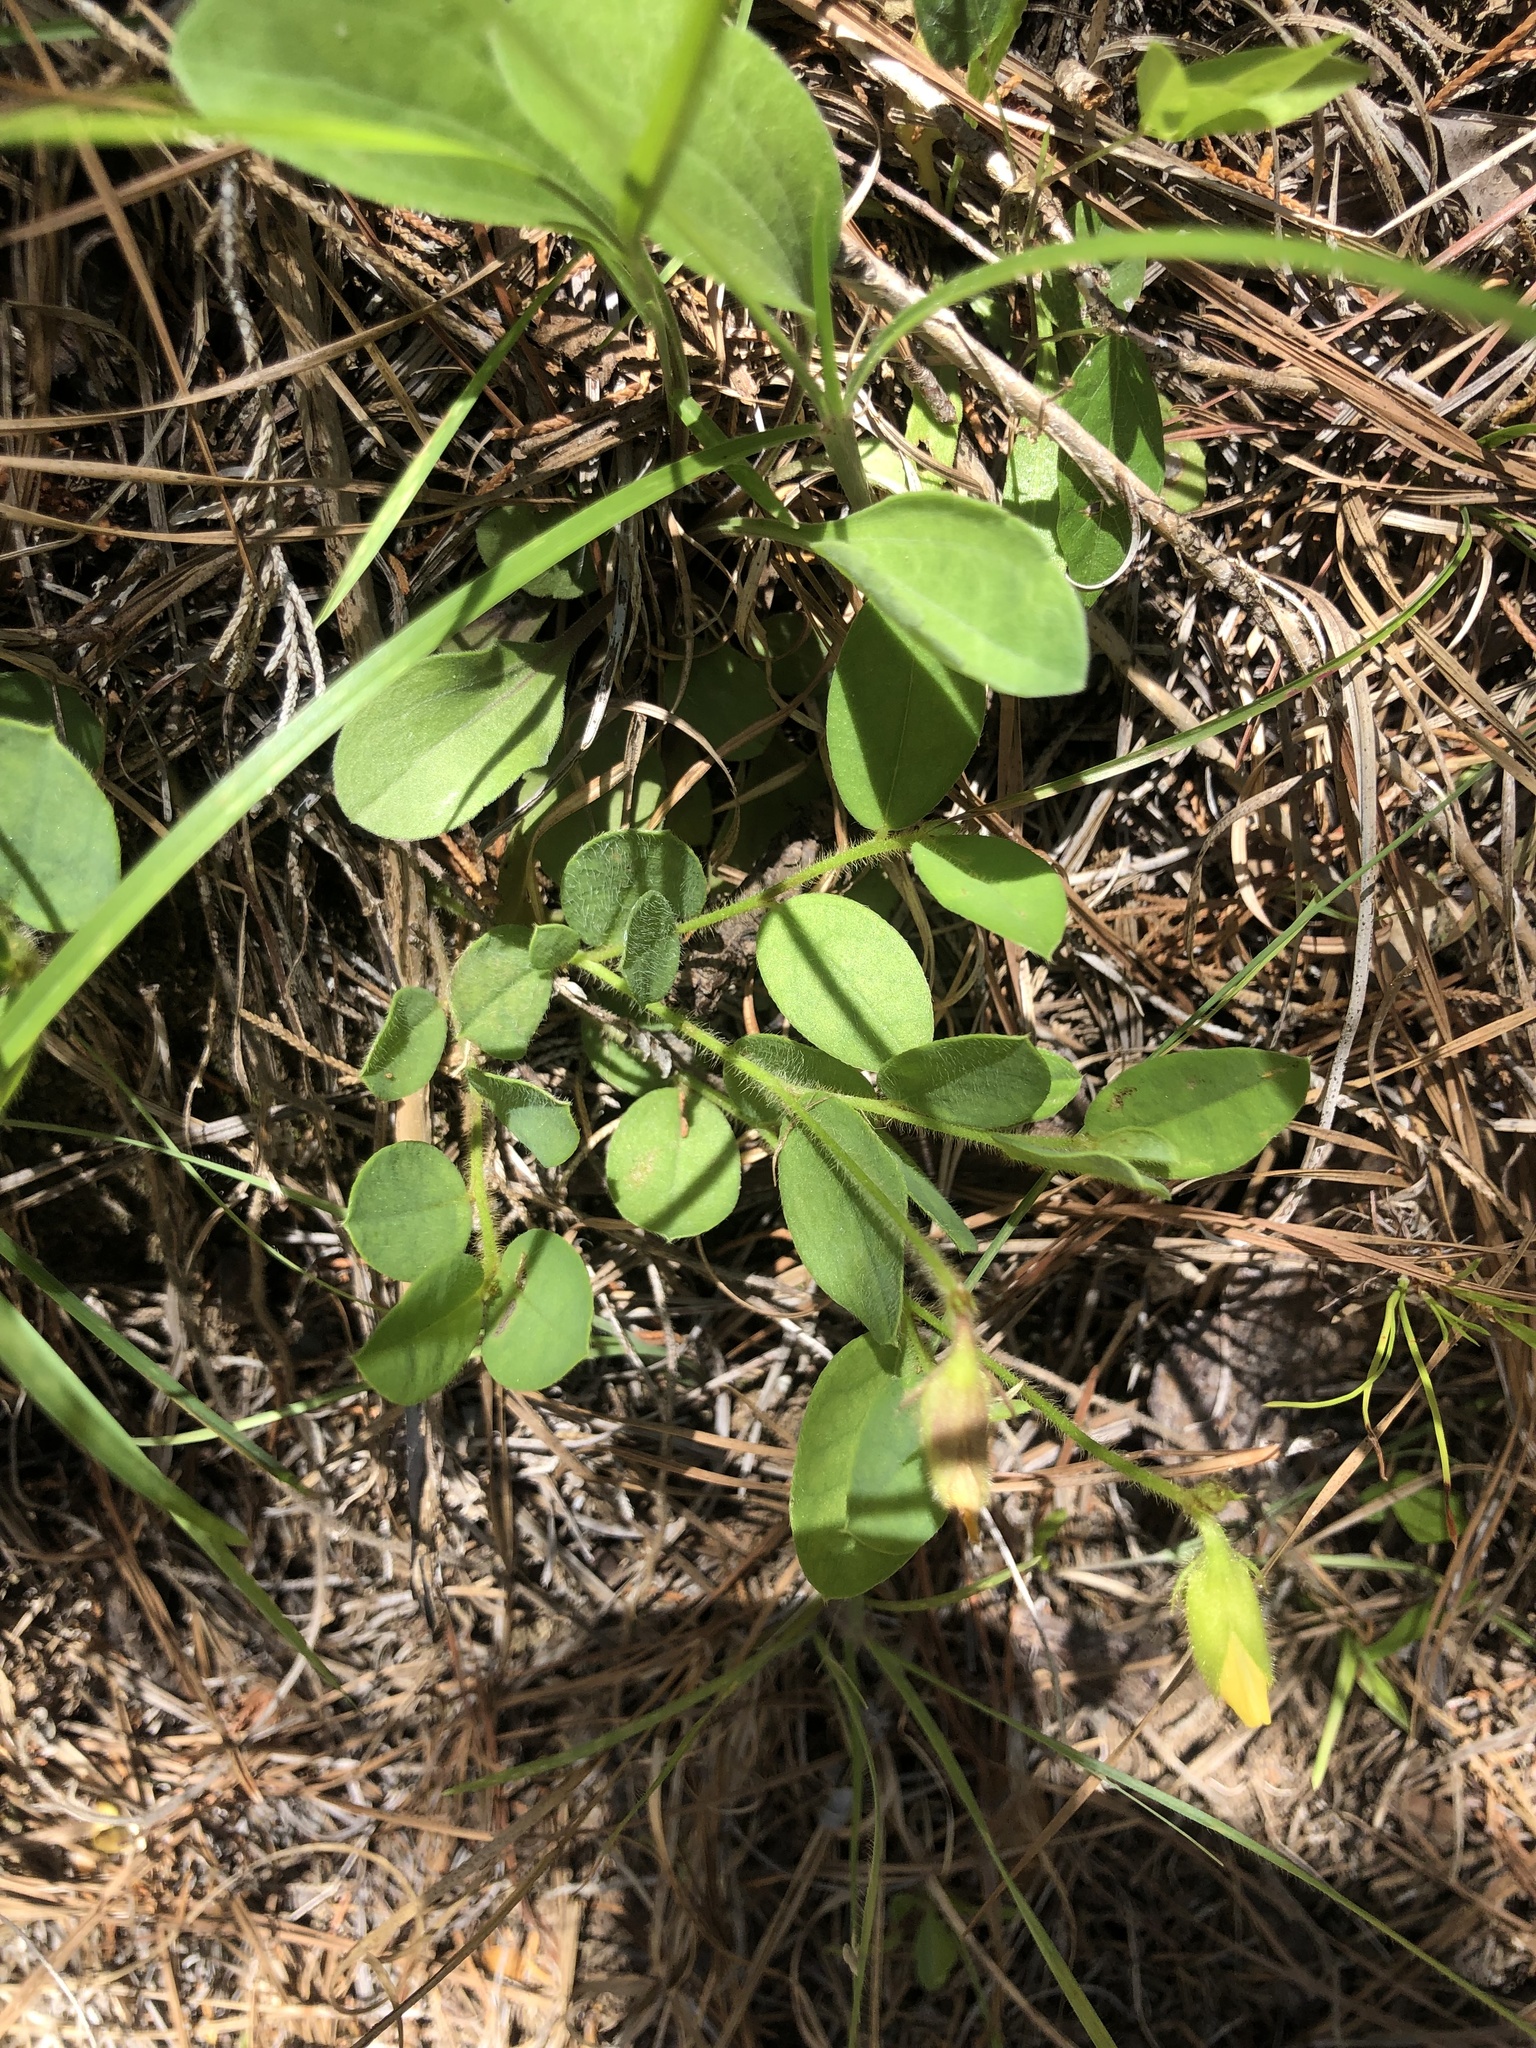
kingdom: Plantae
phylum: Tracheophyta
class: Magnoliopsida
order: Fabales
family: Fabaceae
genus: Crotalaria
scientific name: Crotalaria rotundifolia
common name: Prostrate rattlebox
